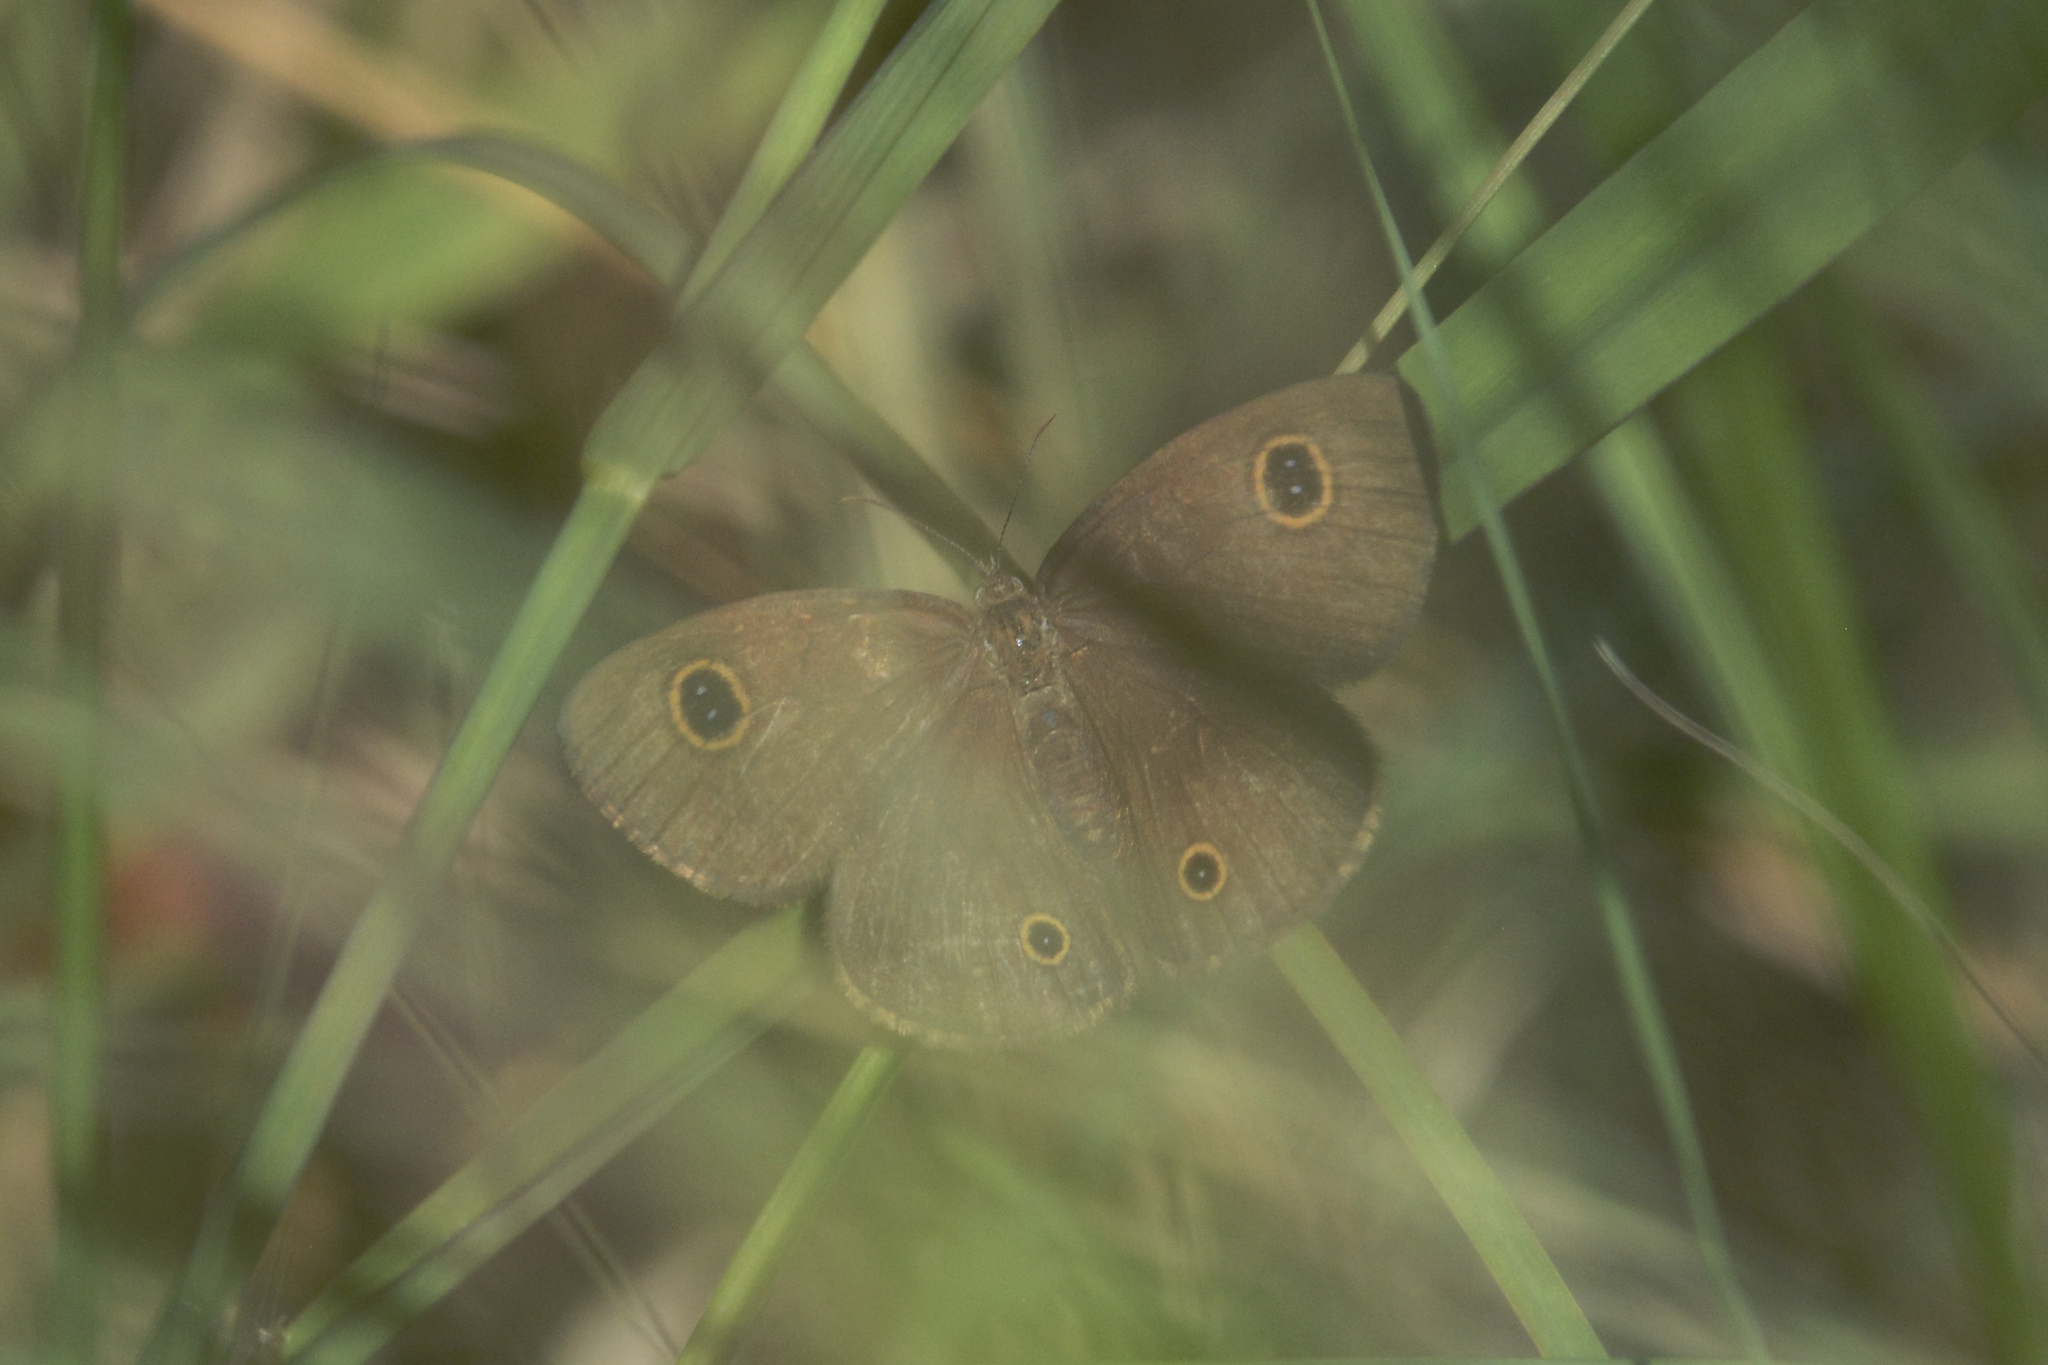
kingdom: Animalia
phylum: Arthropoda
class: Insecta
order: Lepidoptera
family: Nymphalidae
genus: Ypthima
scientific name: Ypthima arctous
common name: Dusky knight
